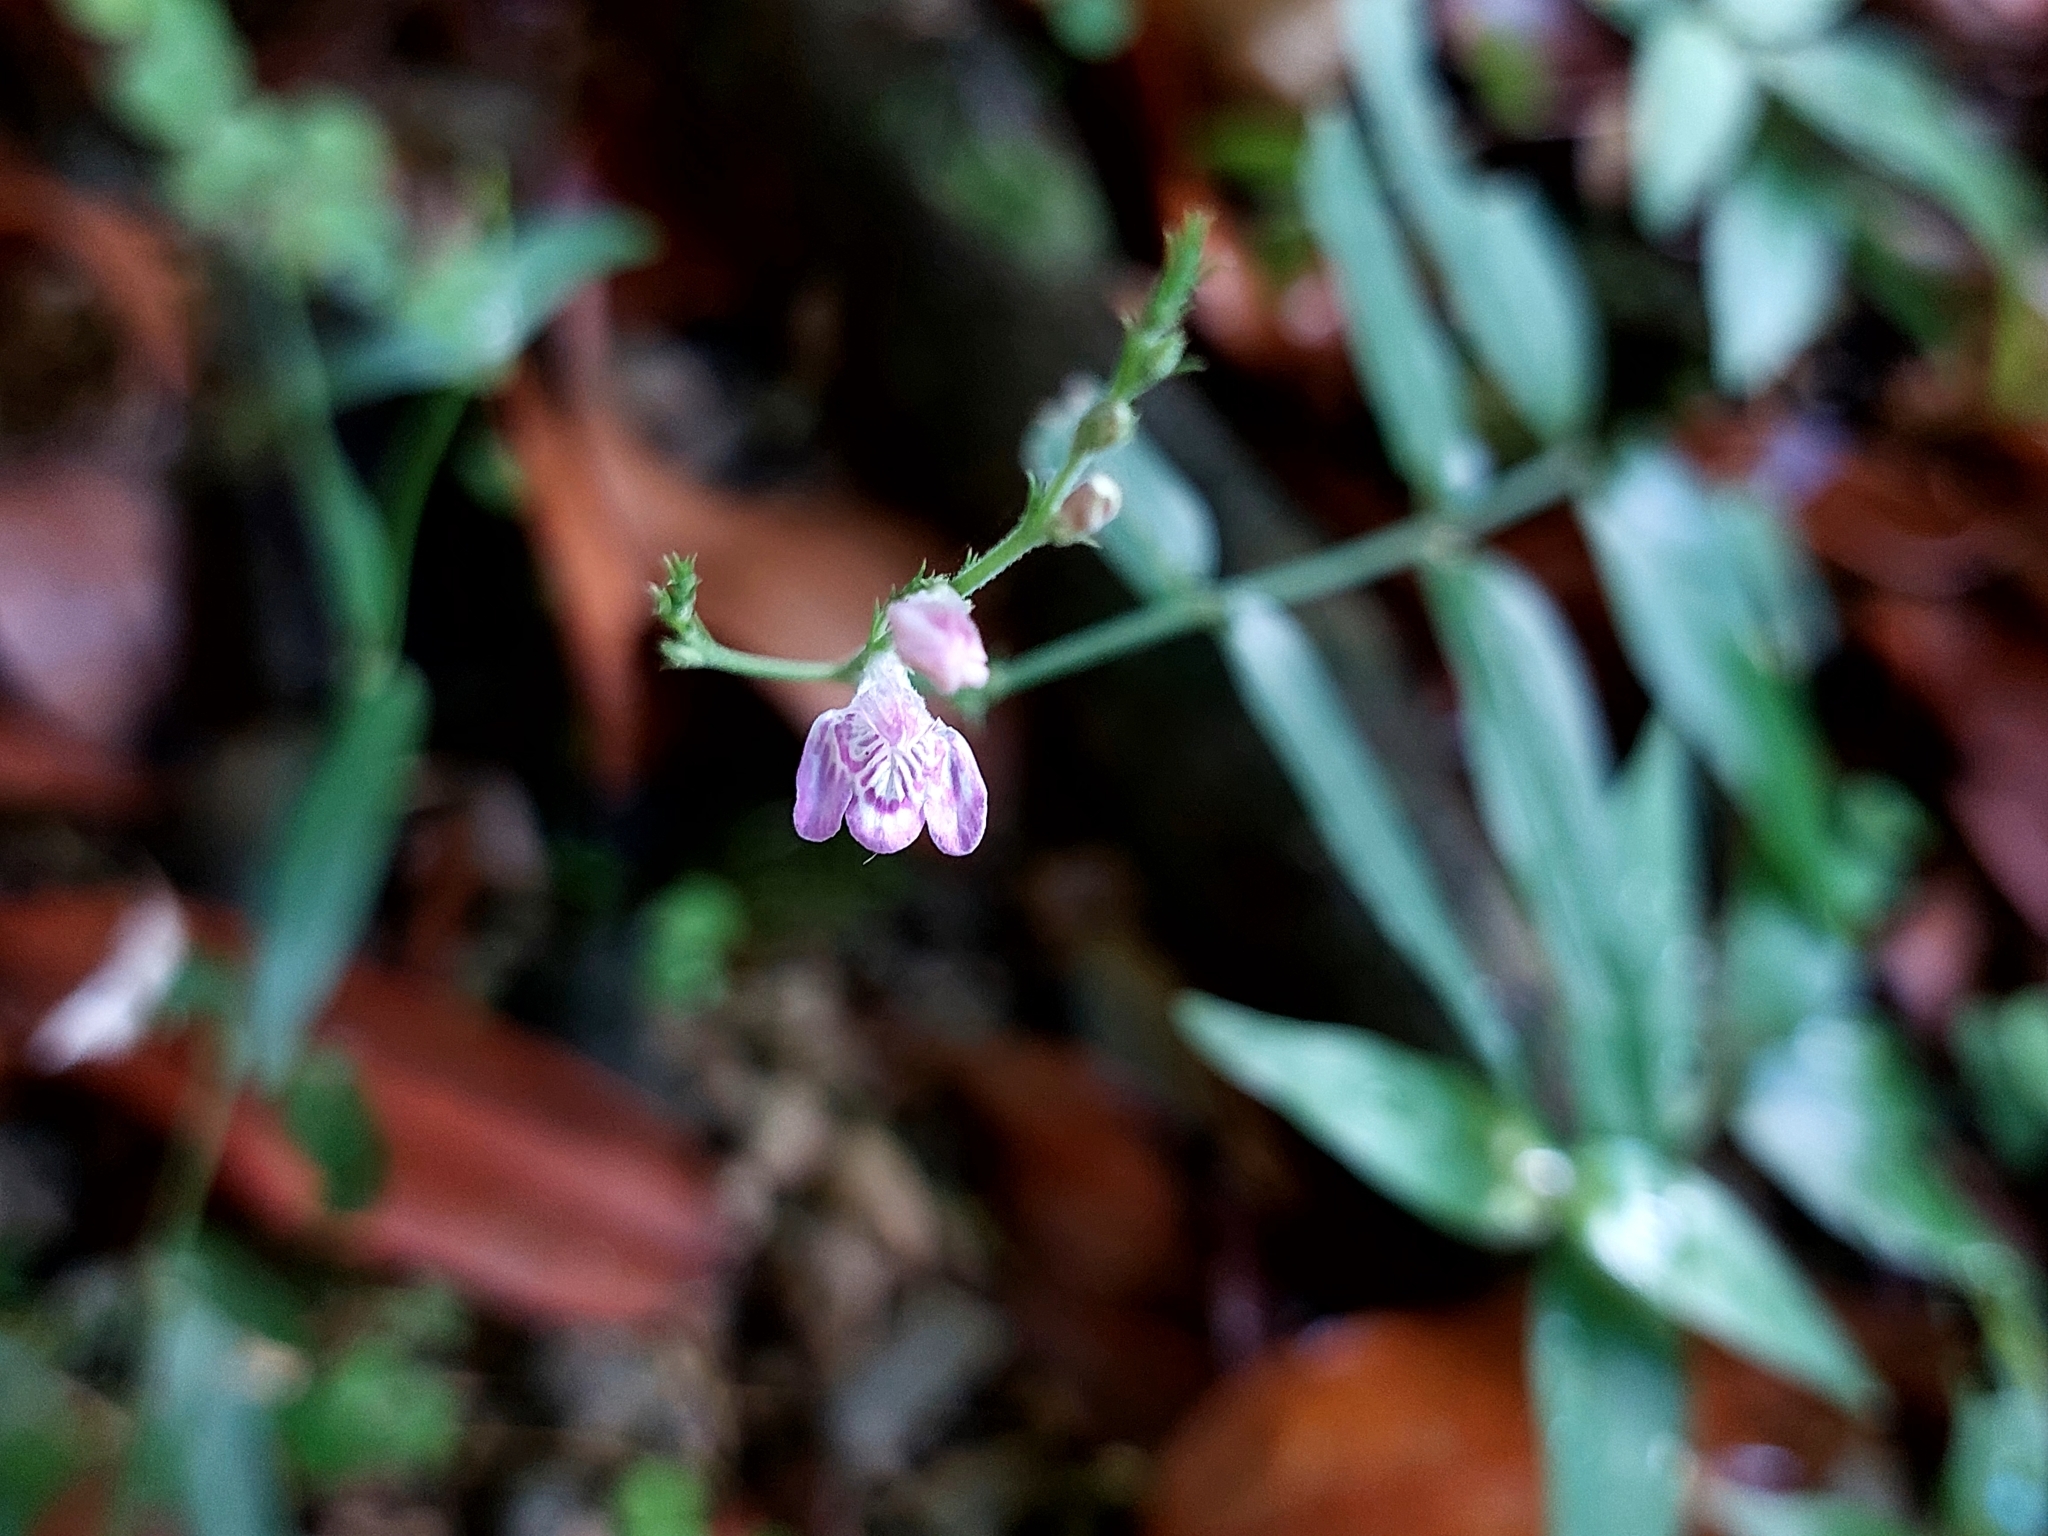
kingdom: Plantae
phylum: Tracheophyta
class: Magnoliopsida
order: Lamiales
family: Acanthaceae
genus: Justicia
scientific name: Justicia comata
